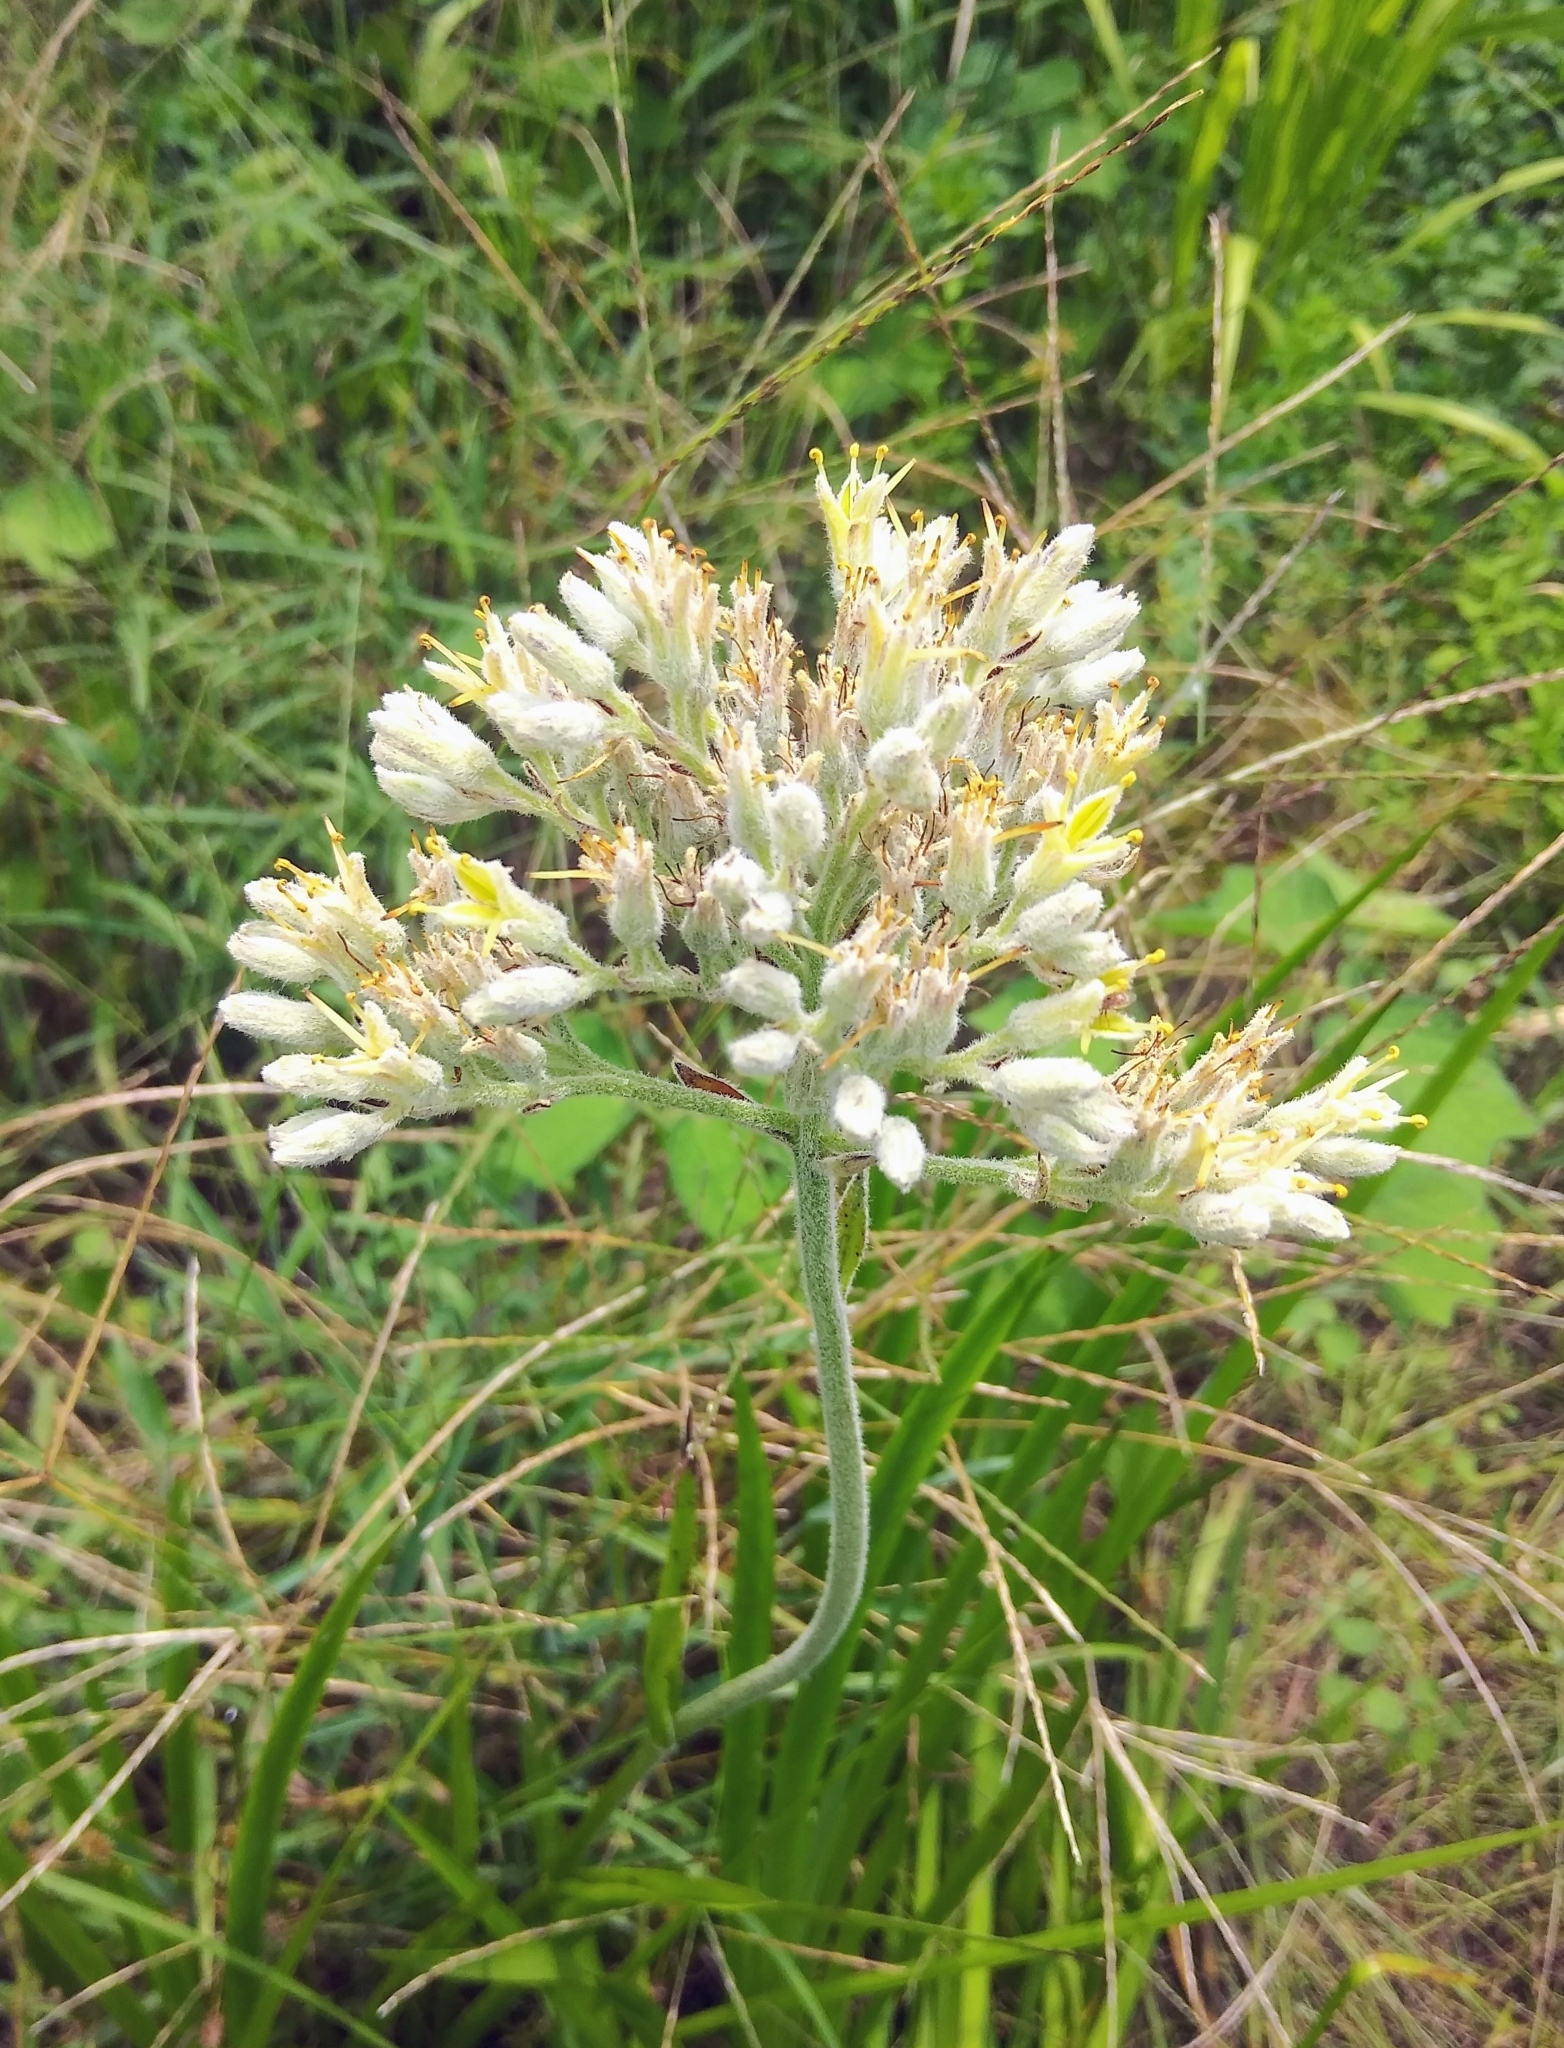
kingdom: Plantae
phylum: Tracheophyta
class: Liliopsida
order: Commelinales
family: Haemodoraceae
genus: Lachnanthes
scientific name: Lachnanthes caroliana
